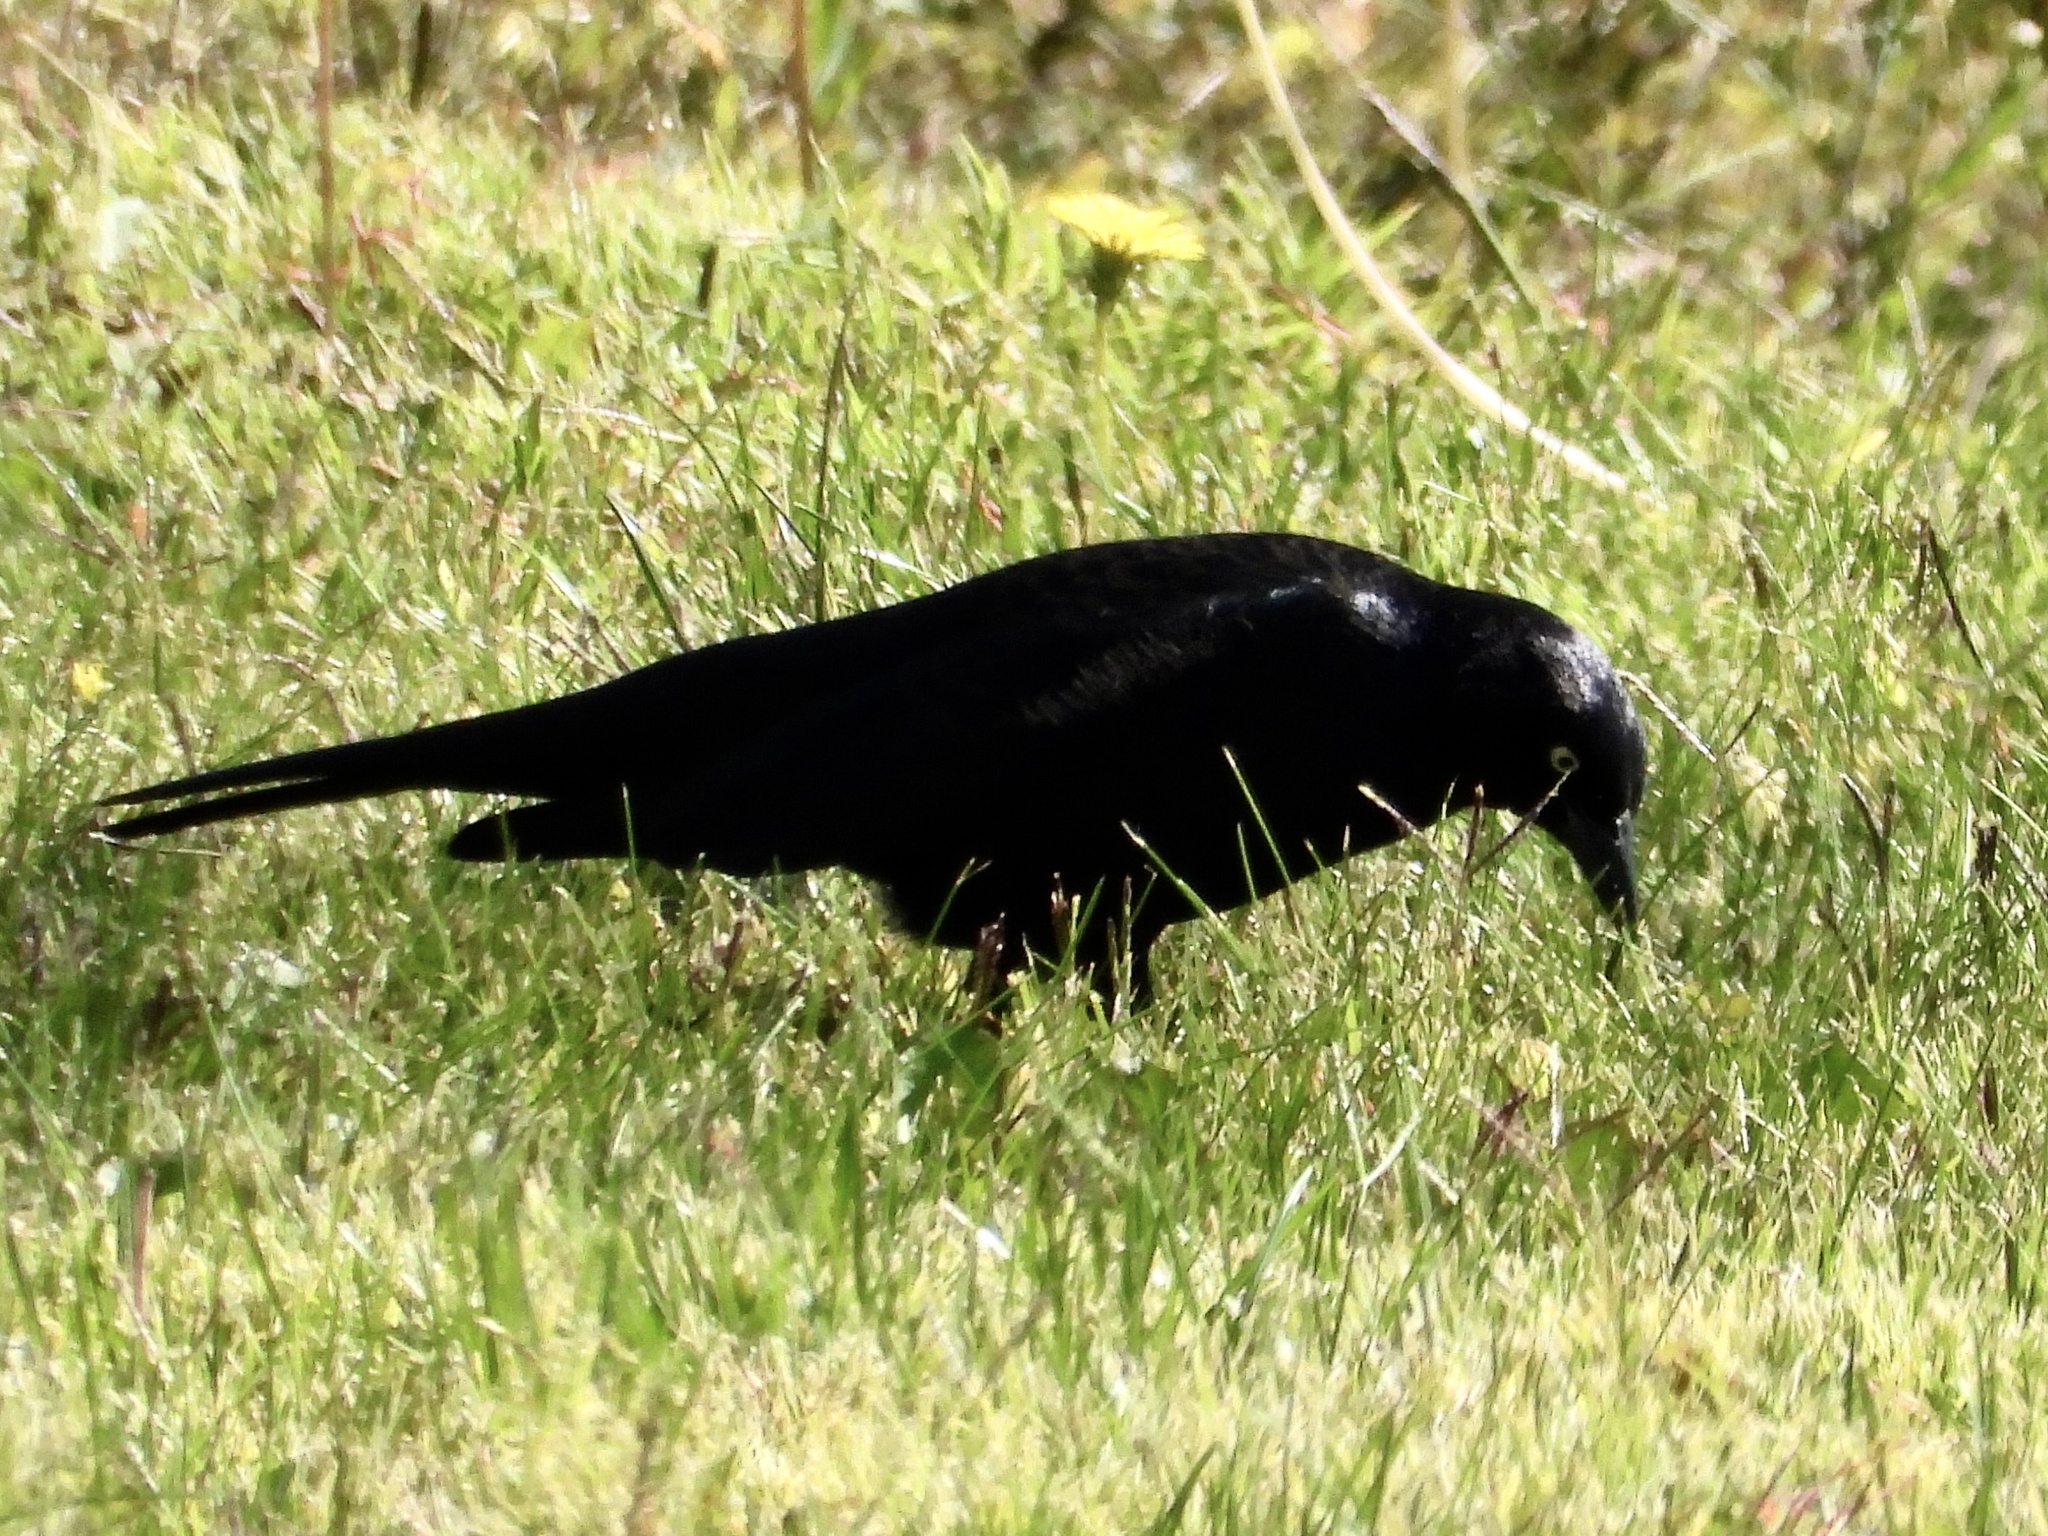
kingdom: Animalia
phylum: Chordata
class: Aves
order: Passeriformes
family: Icteridae
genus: Euphagus
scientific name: Euphagus cyanocephalus
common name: Brewer's blackbird
